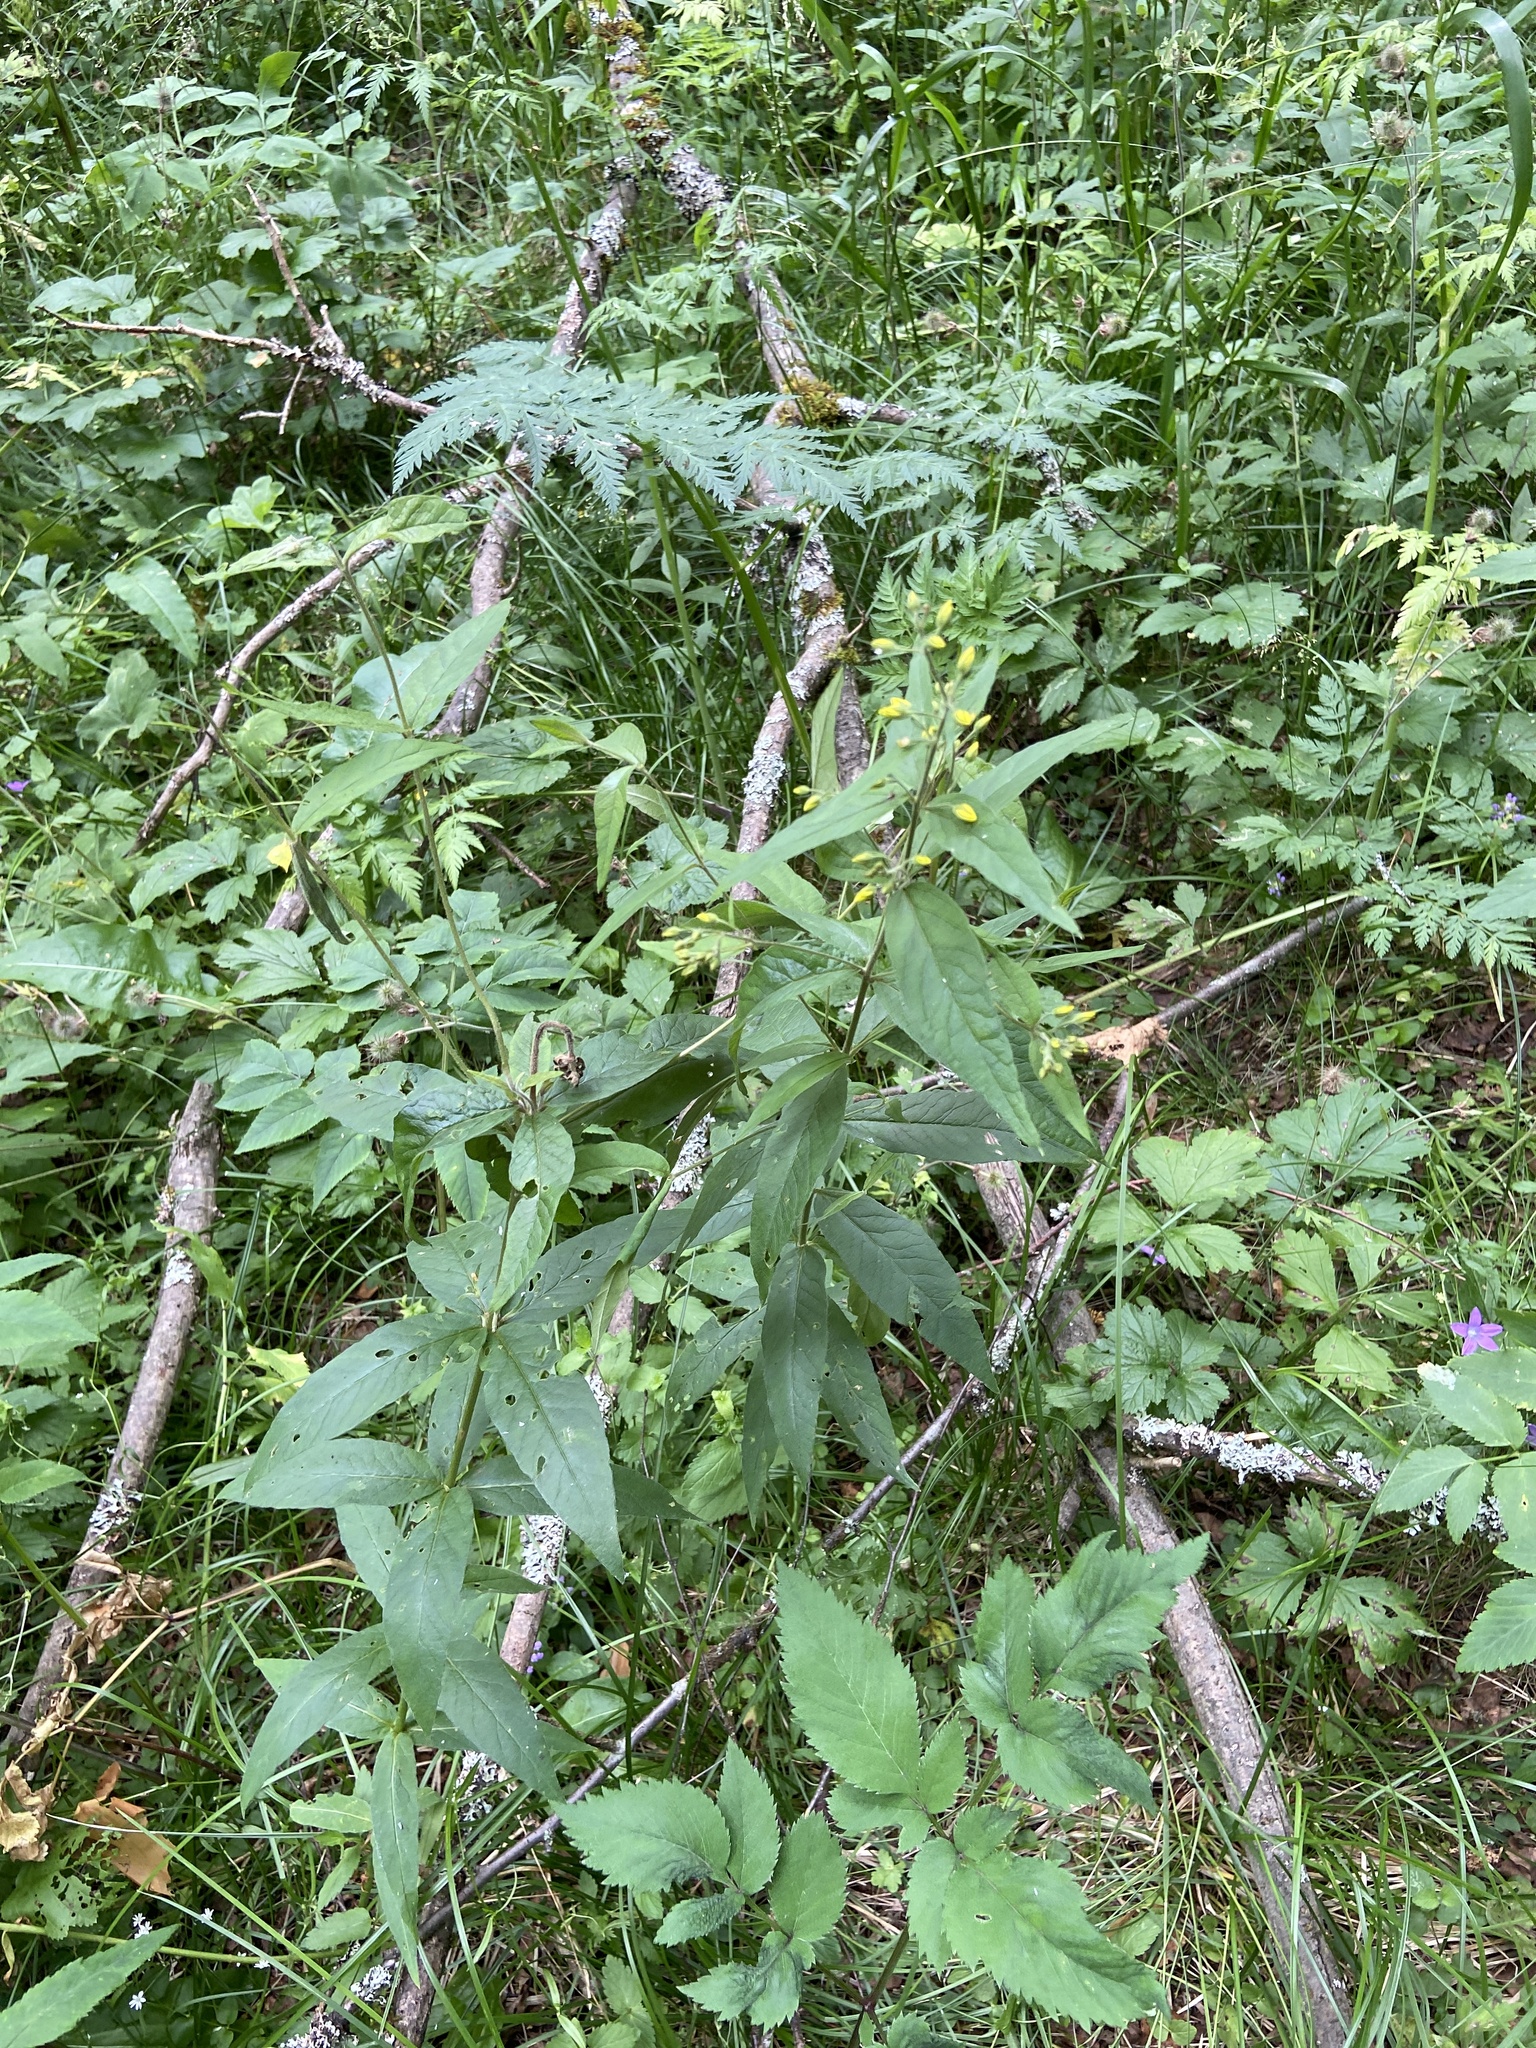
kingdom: Plantae
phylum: Tracheophyta
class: Magnoliopsida
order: Ericales
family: Primulaceae
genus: Lysimachia
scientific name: Lysimachia vulgaris
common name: Yellow loosestrife
